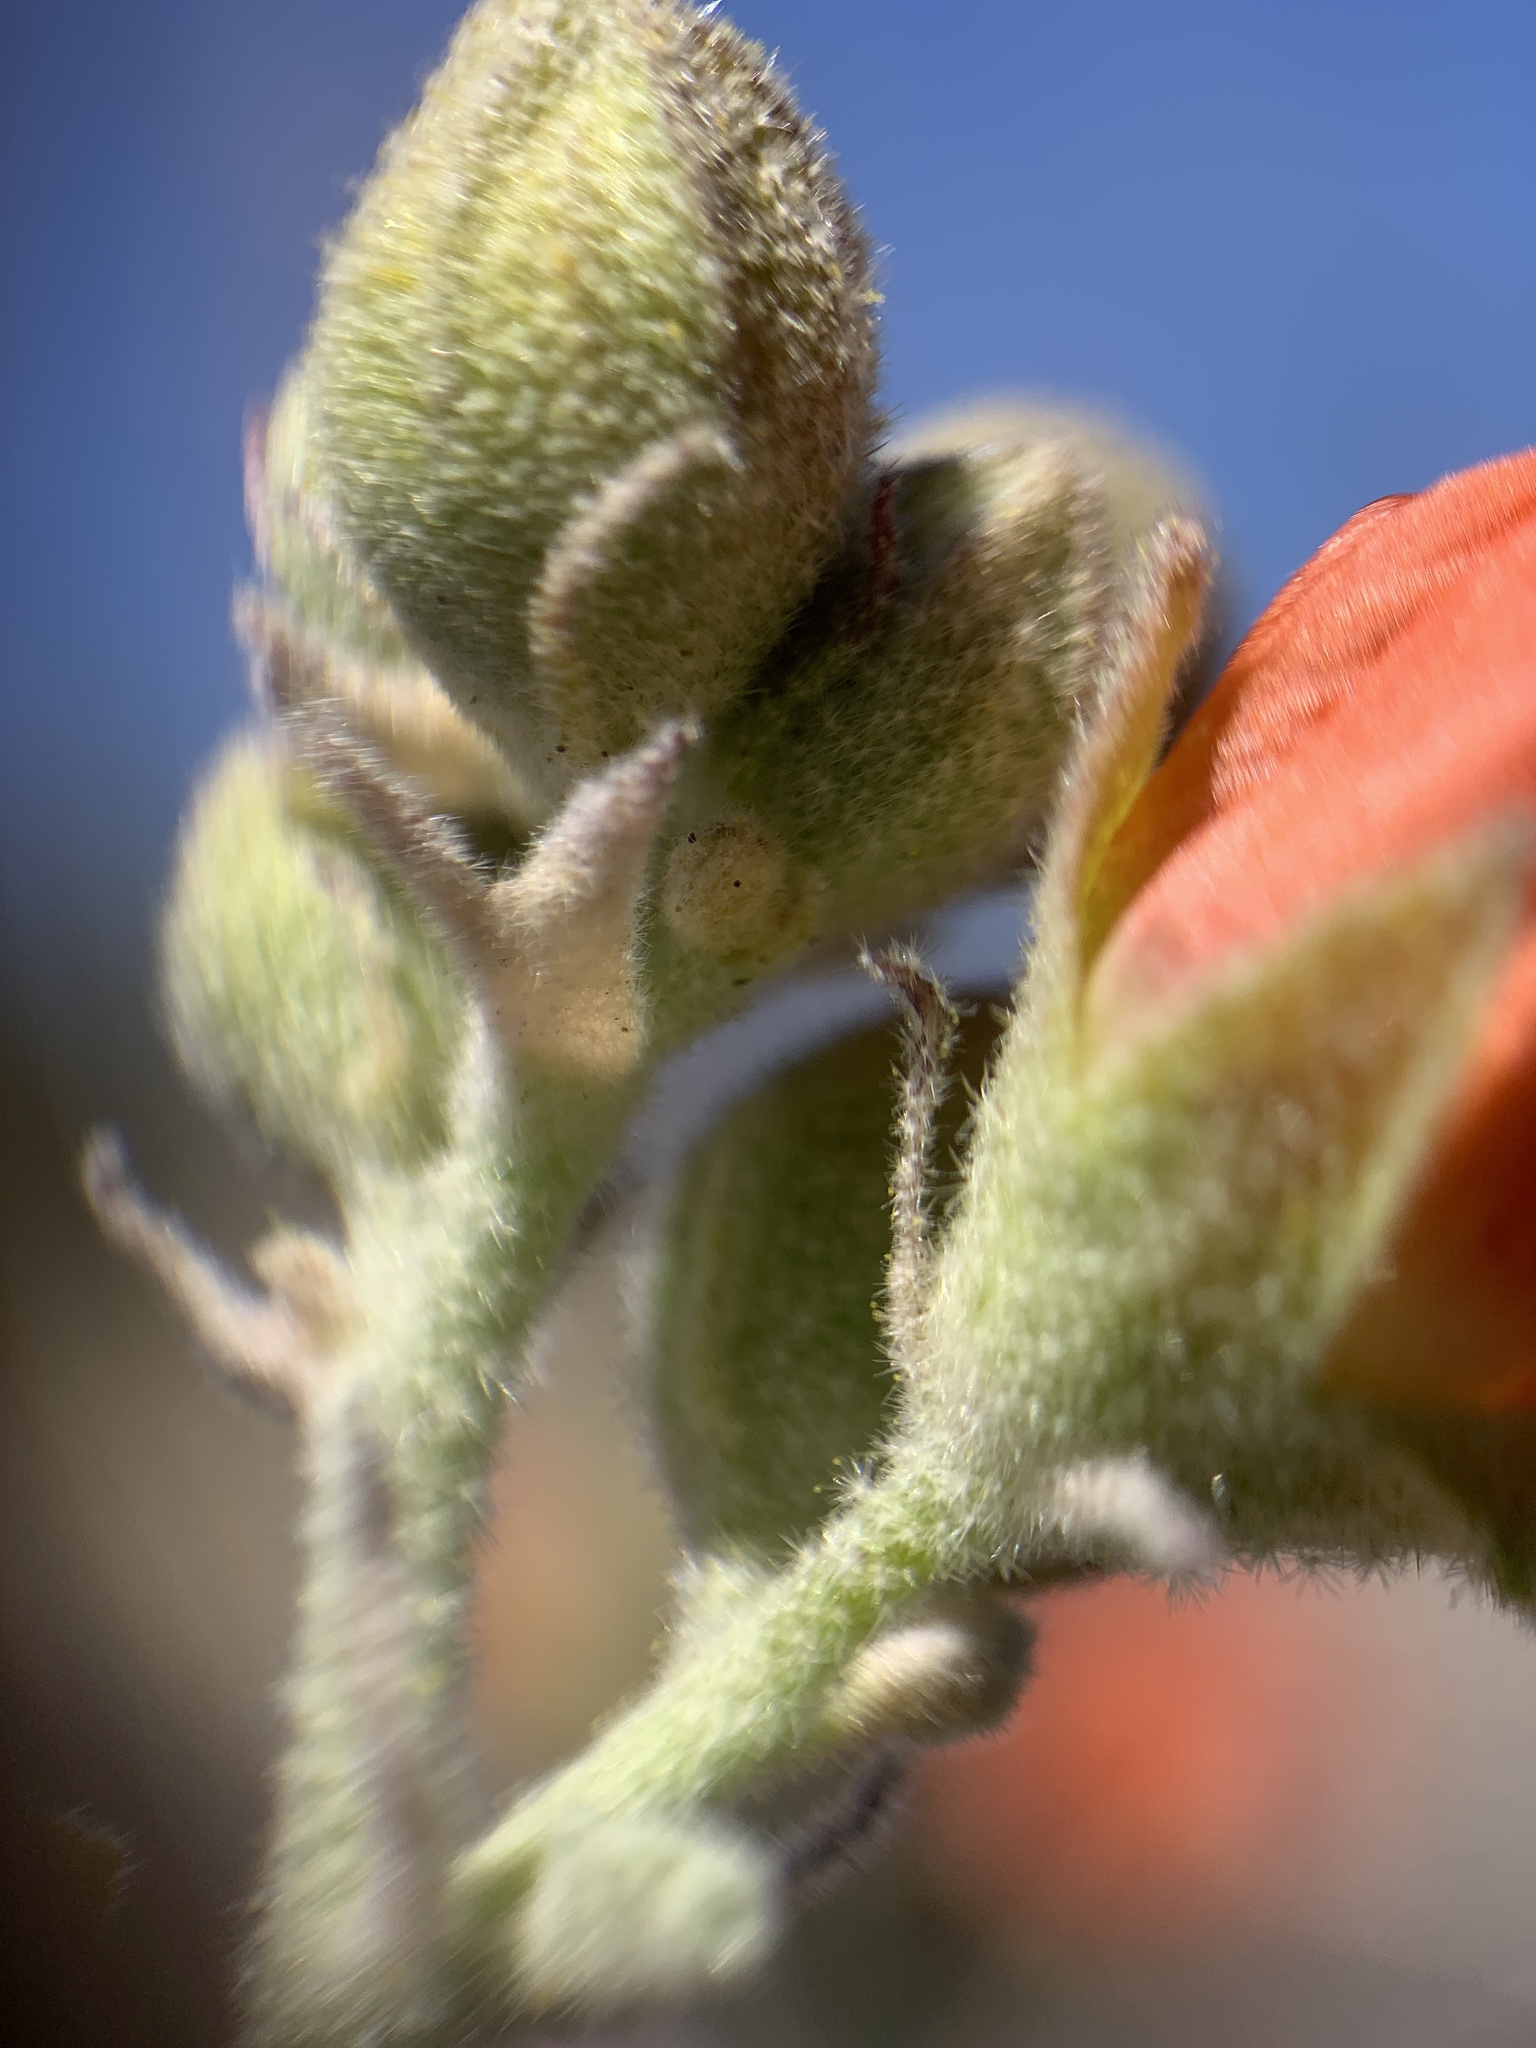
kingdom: Plantae
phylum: Tracheophyta
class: Magnoliopsida
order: Malvales
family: Malvaceae
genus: Sphaeralcea
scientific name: Sphaeralcea ambigua
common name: Apricot globe-mallow
